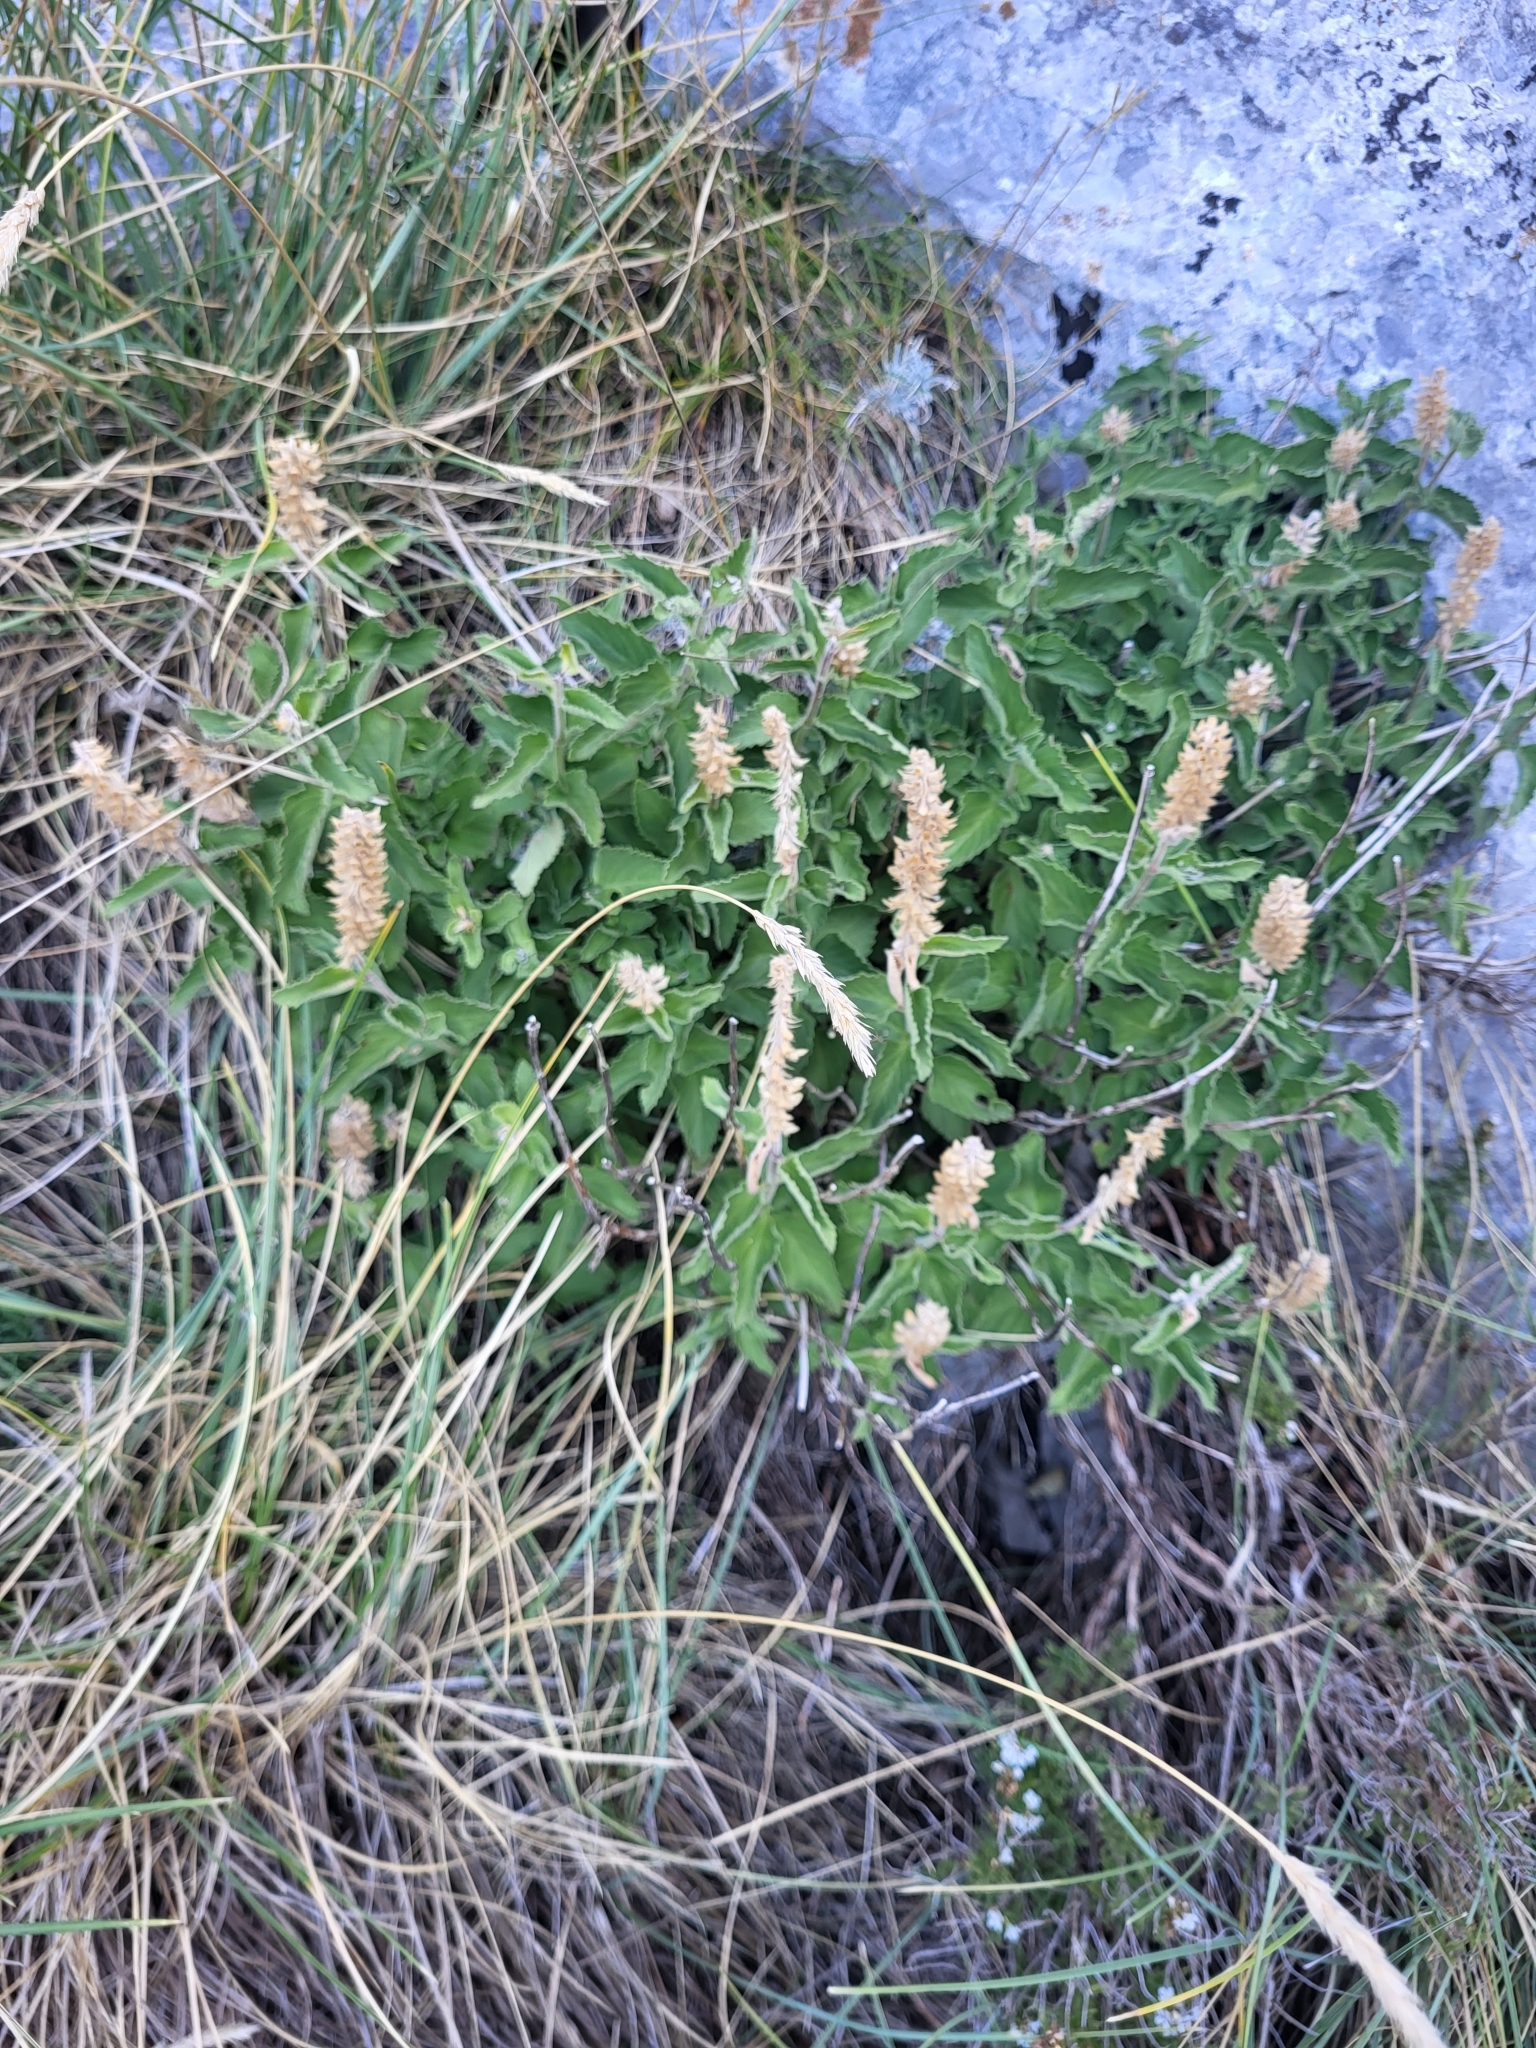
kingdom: Plantae
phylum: Tracheophyta
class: Magnoliopsida
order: Lamiales
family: Lamiaceae
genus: Teucrium
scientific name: Teucrium arduini
